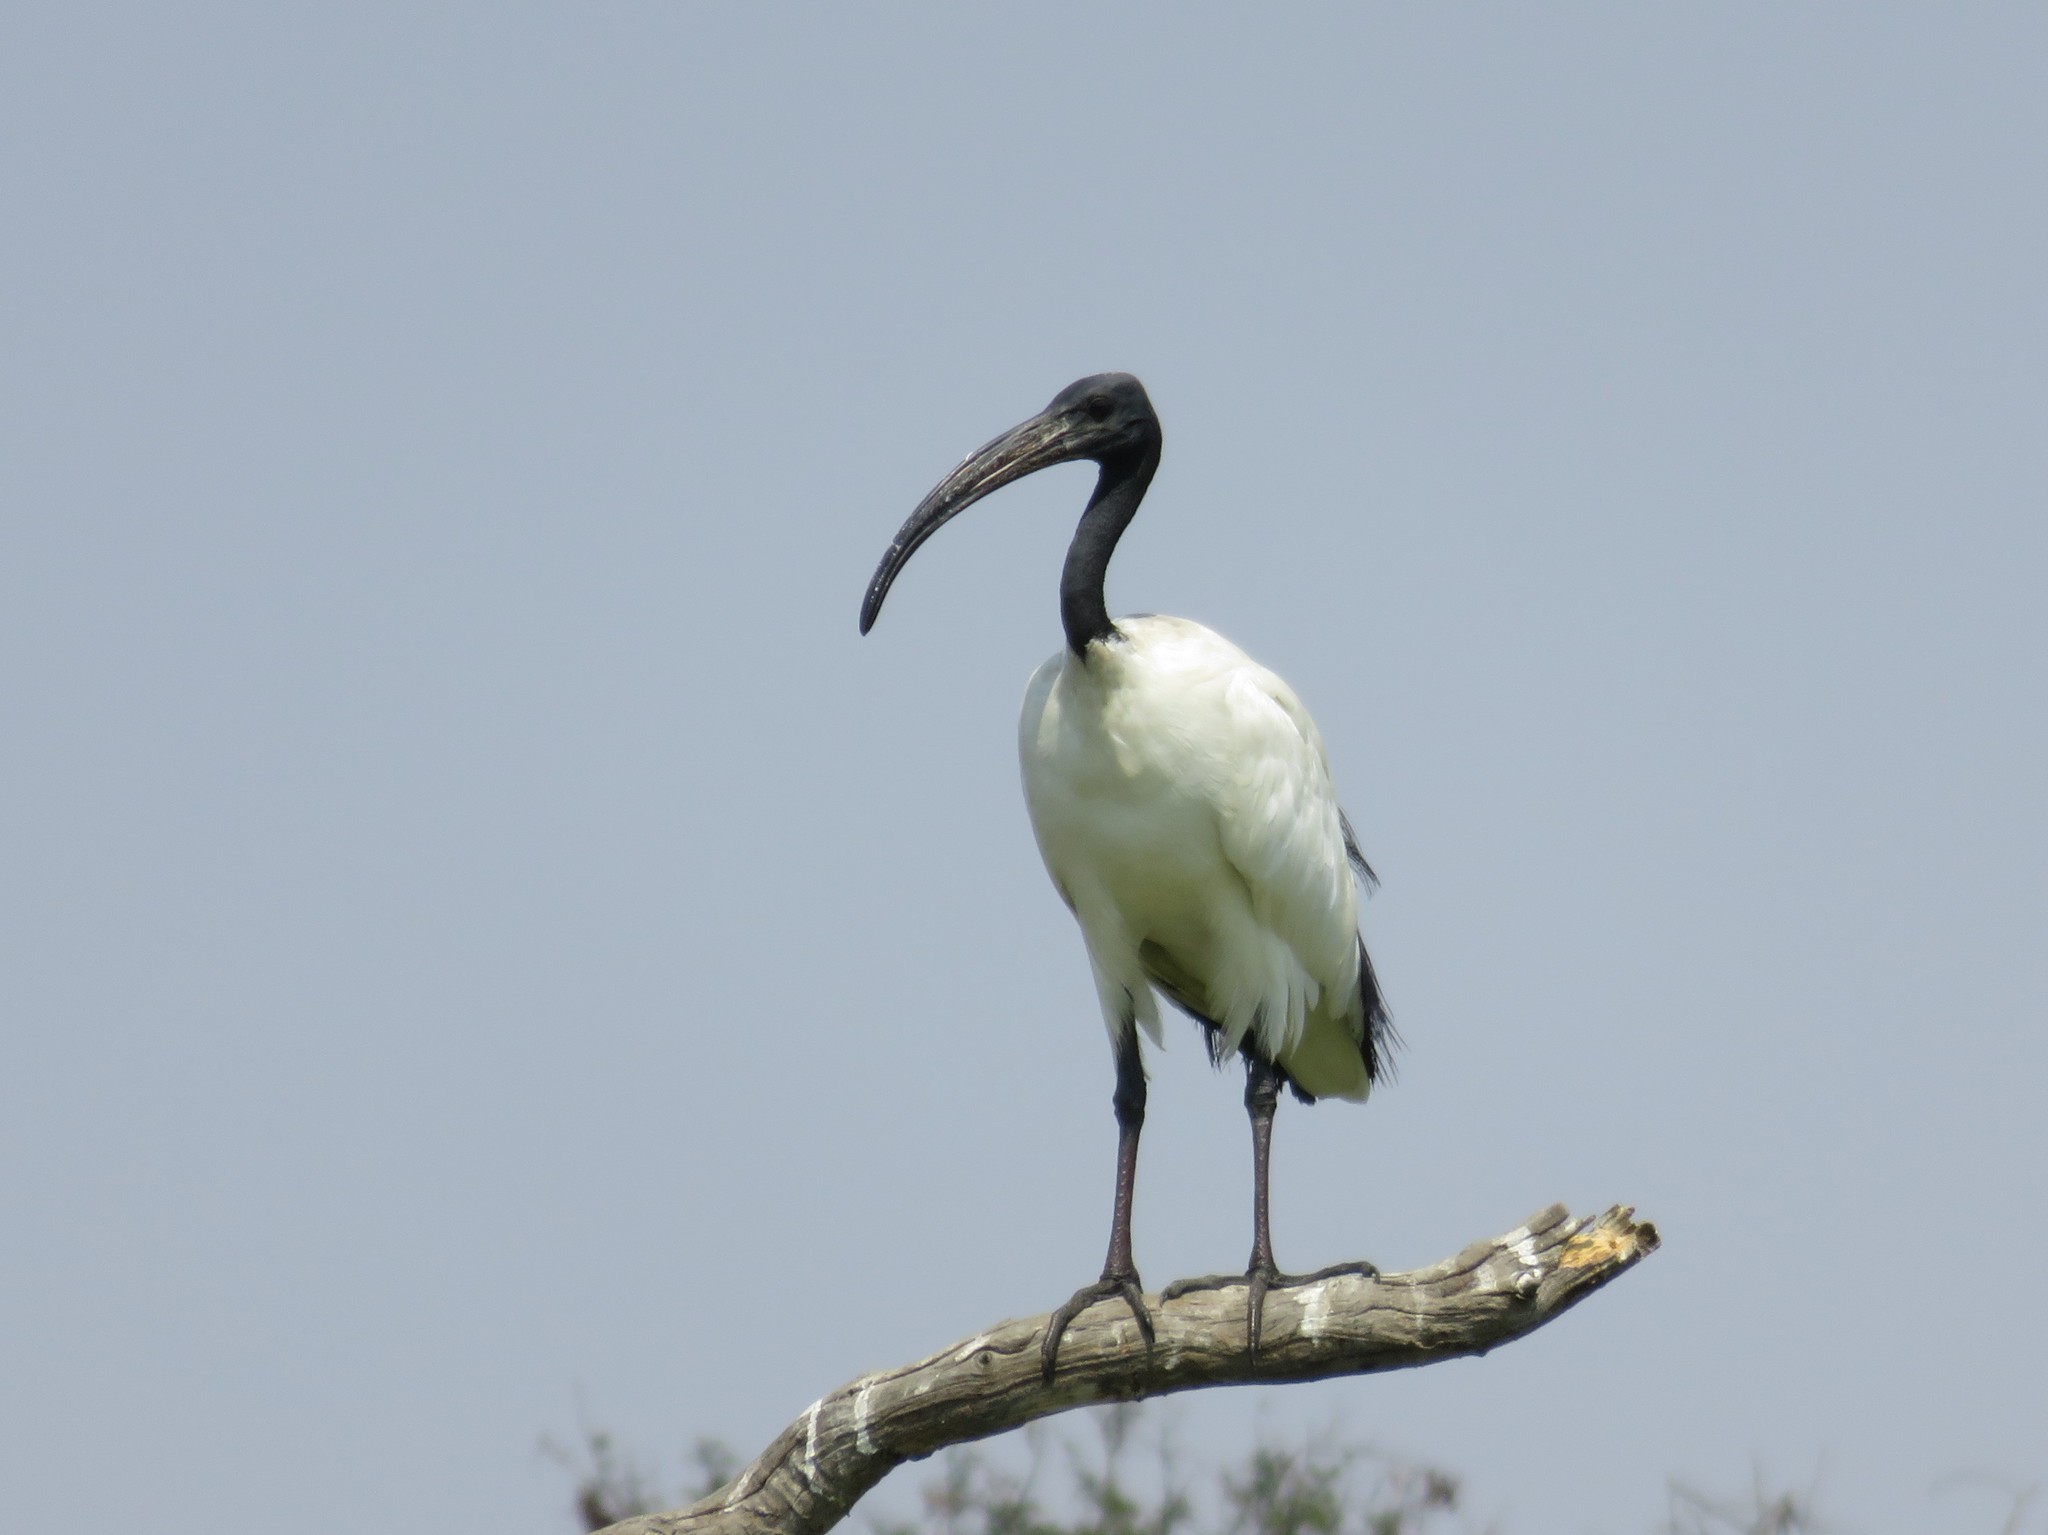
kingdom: Animalia
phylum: Chordata
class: Aves
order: Pelecaniformes
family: Threskiornithidae
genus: Threskiornis
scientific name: Threskiornis aethiopicus
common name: Sacred ibis
